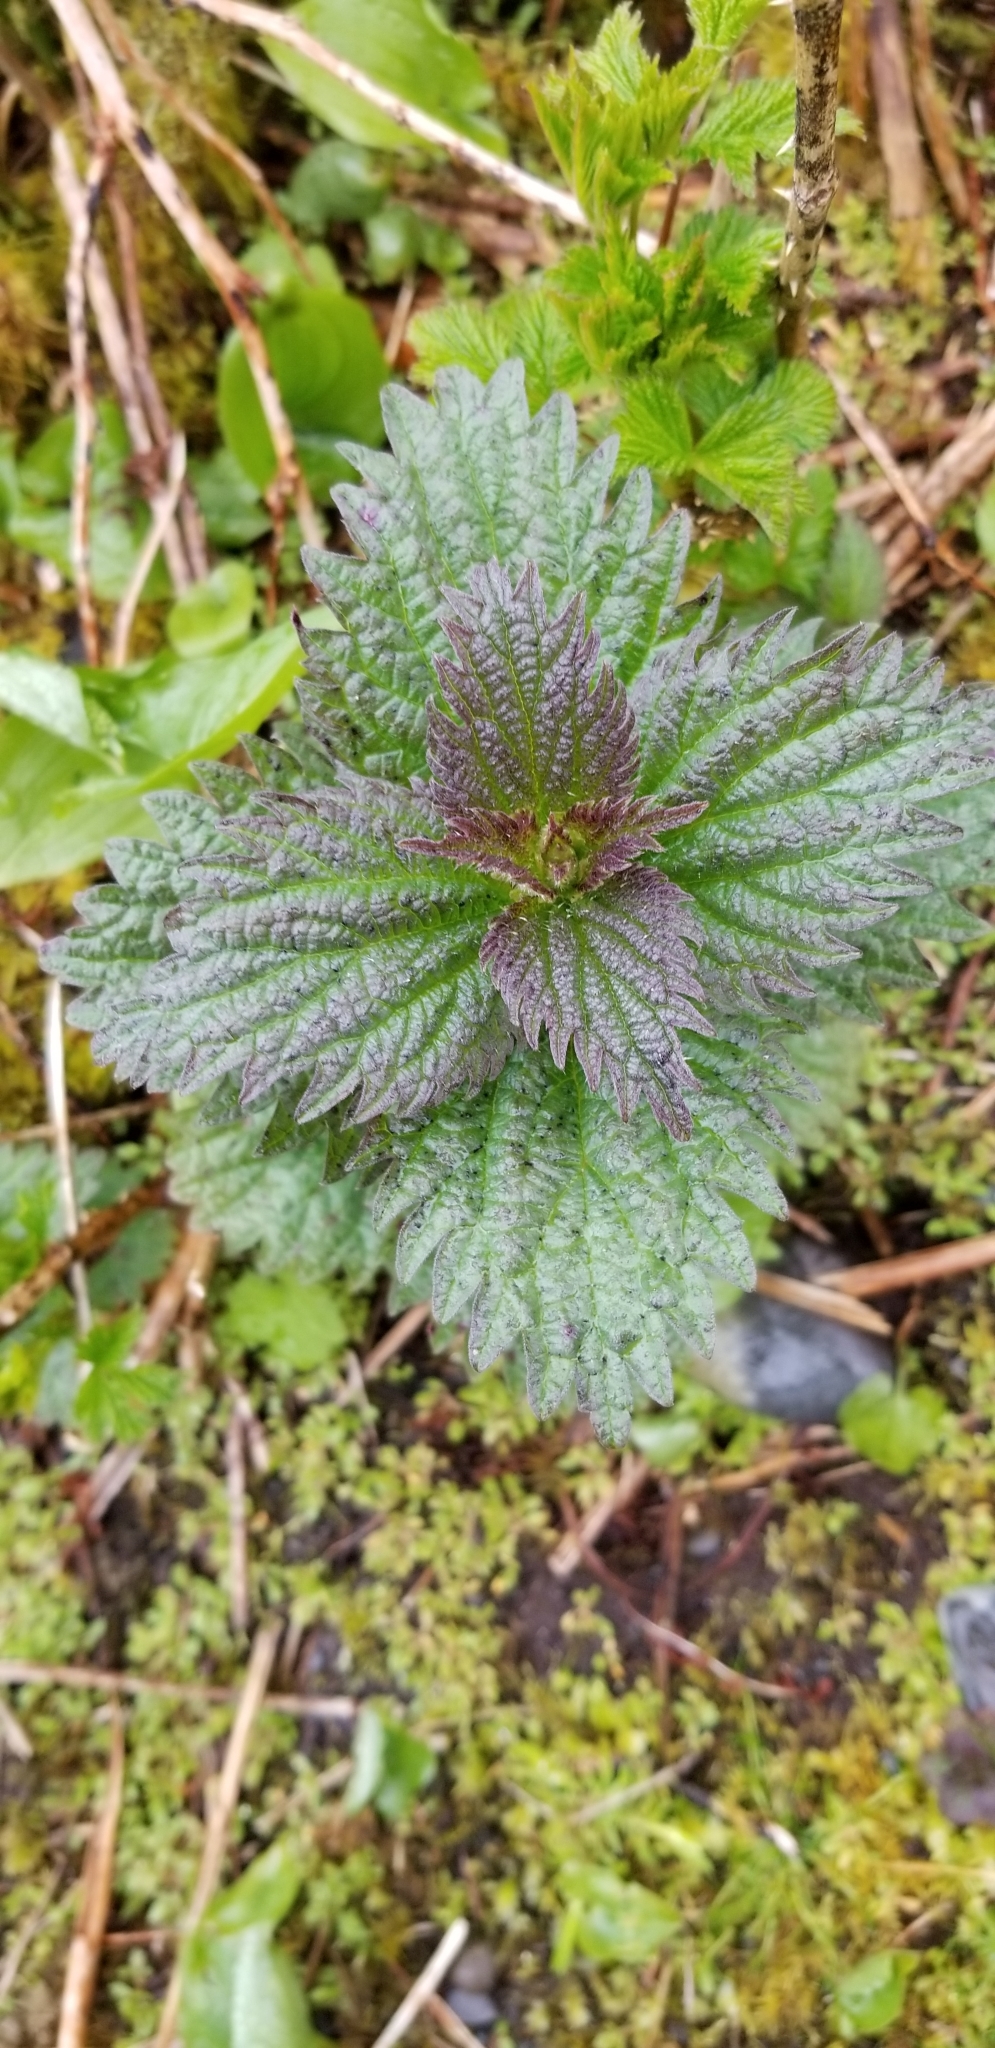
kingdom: Plantae
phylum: Tracheophyta
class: Magnoliopsida
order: Rosales
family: Urticaceae
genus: Urtica
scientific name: Urtica dioica
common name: Common nettle
